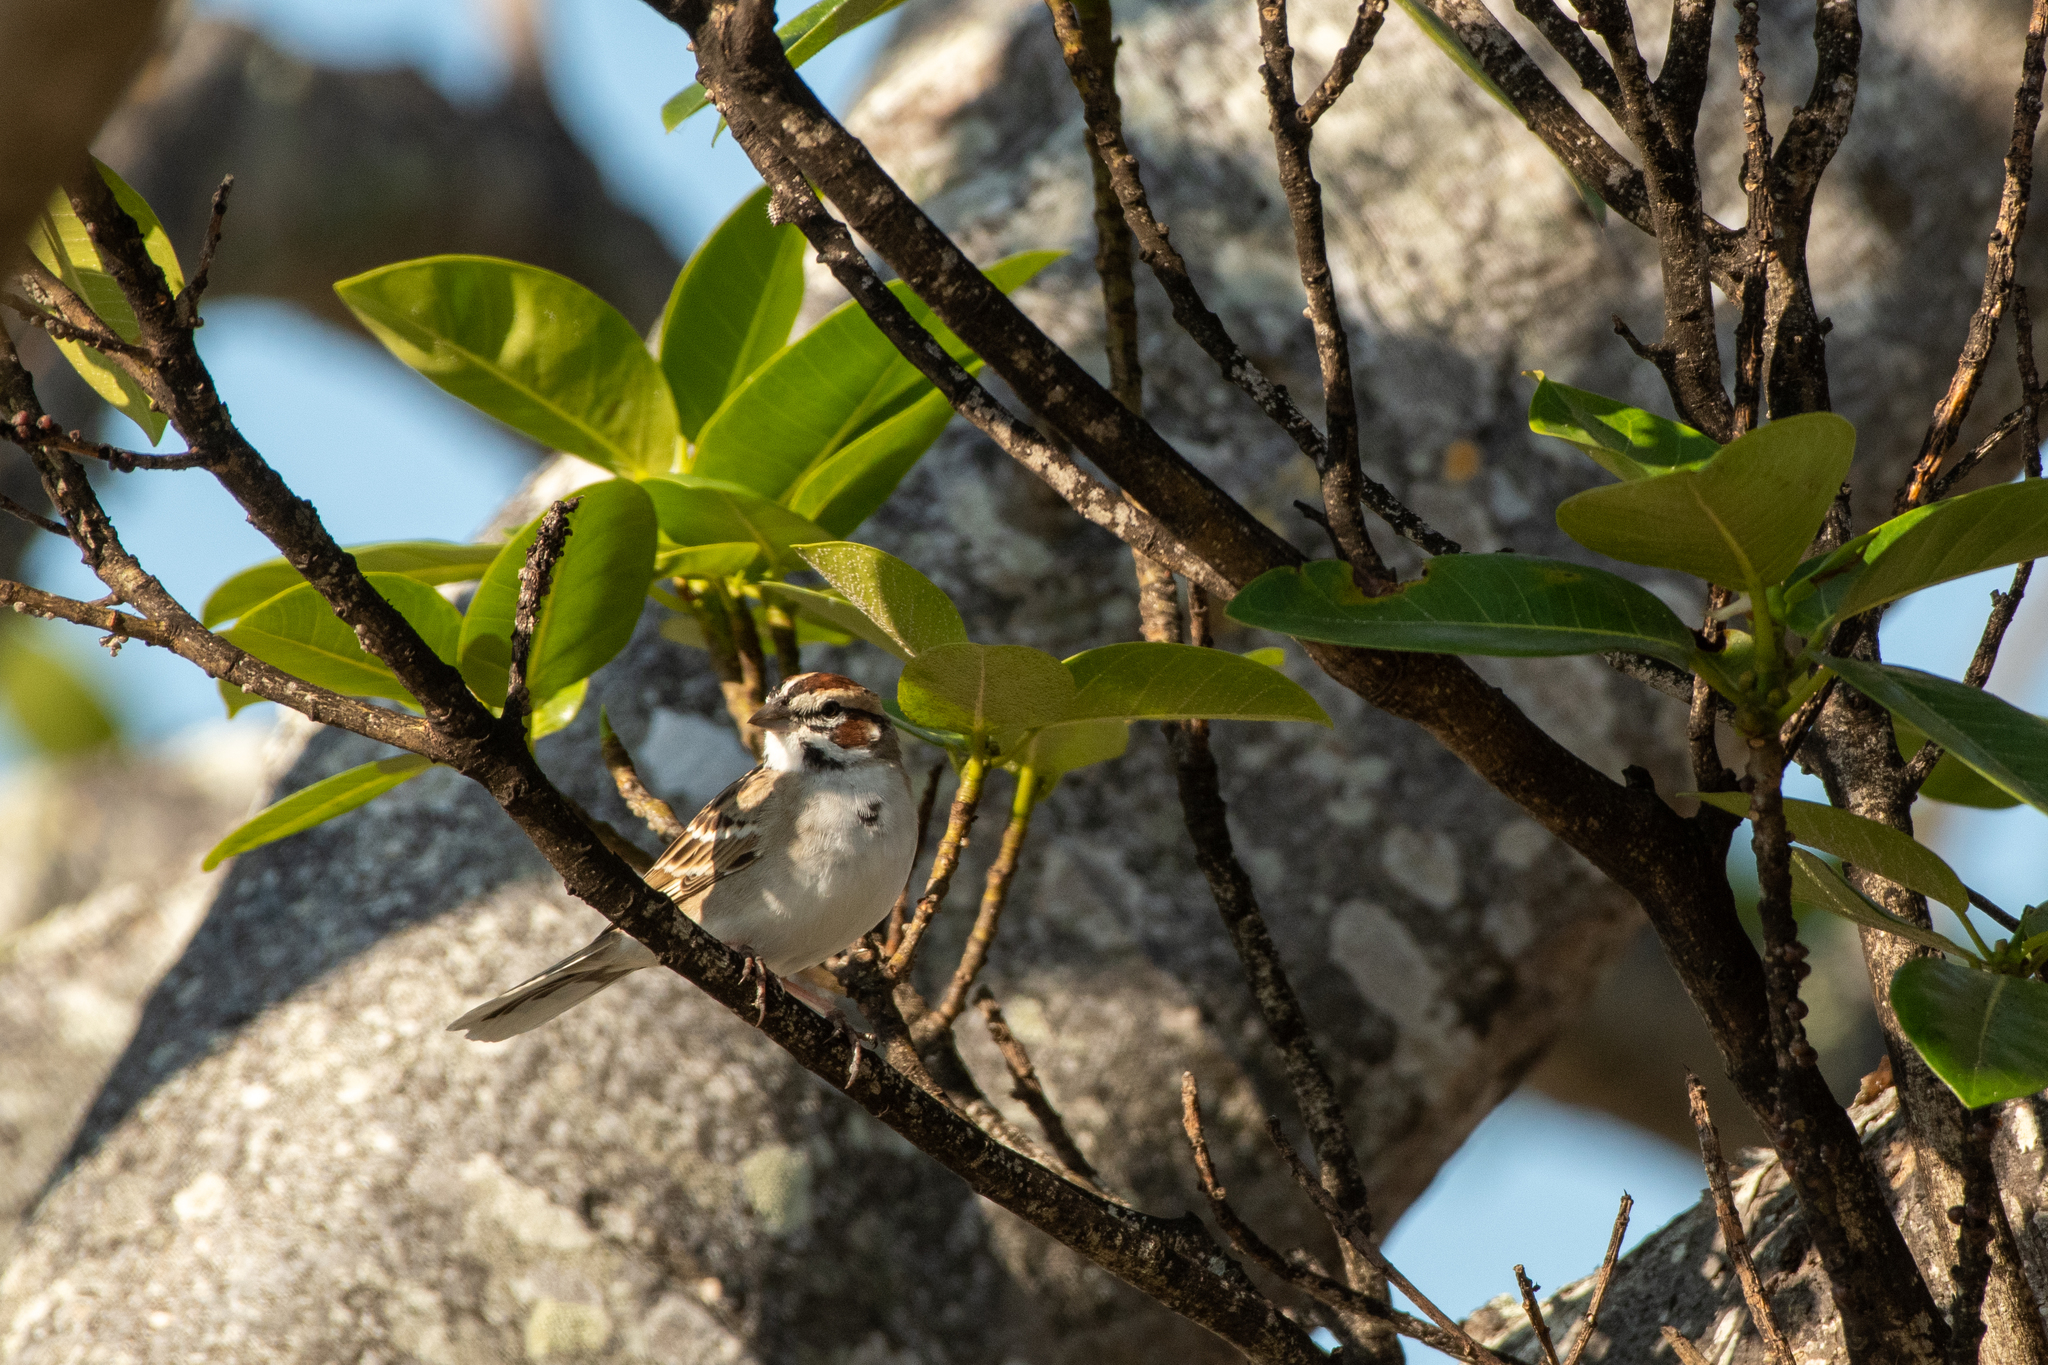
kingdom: Animalia
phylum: Chordata
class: Aves
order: Passeriformes
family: Passerellidae
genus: Chondestes
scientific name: Chondestes grammacus
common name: Lark sparrow
